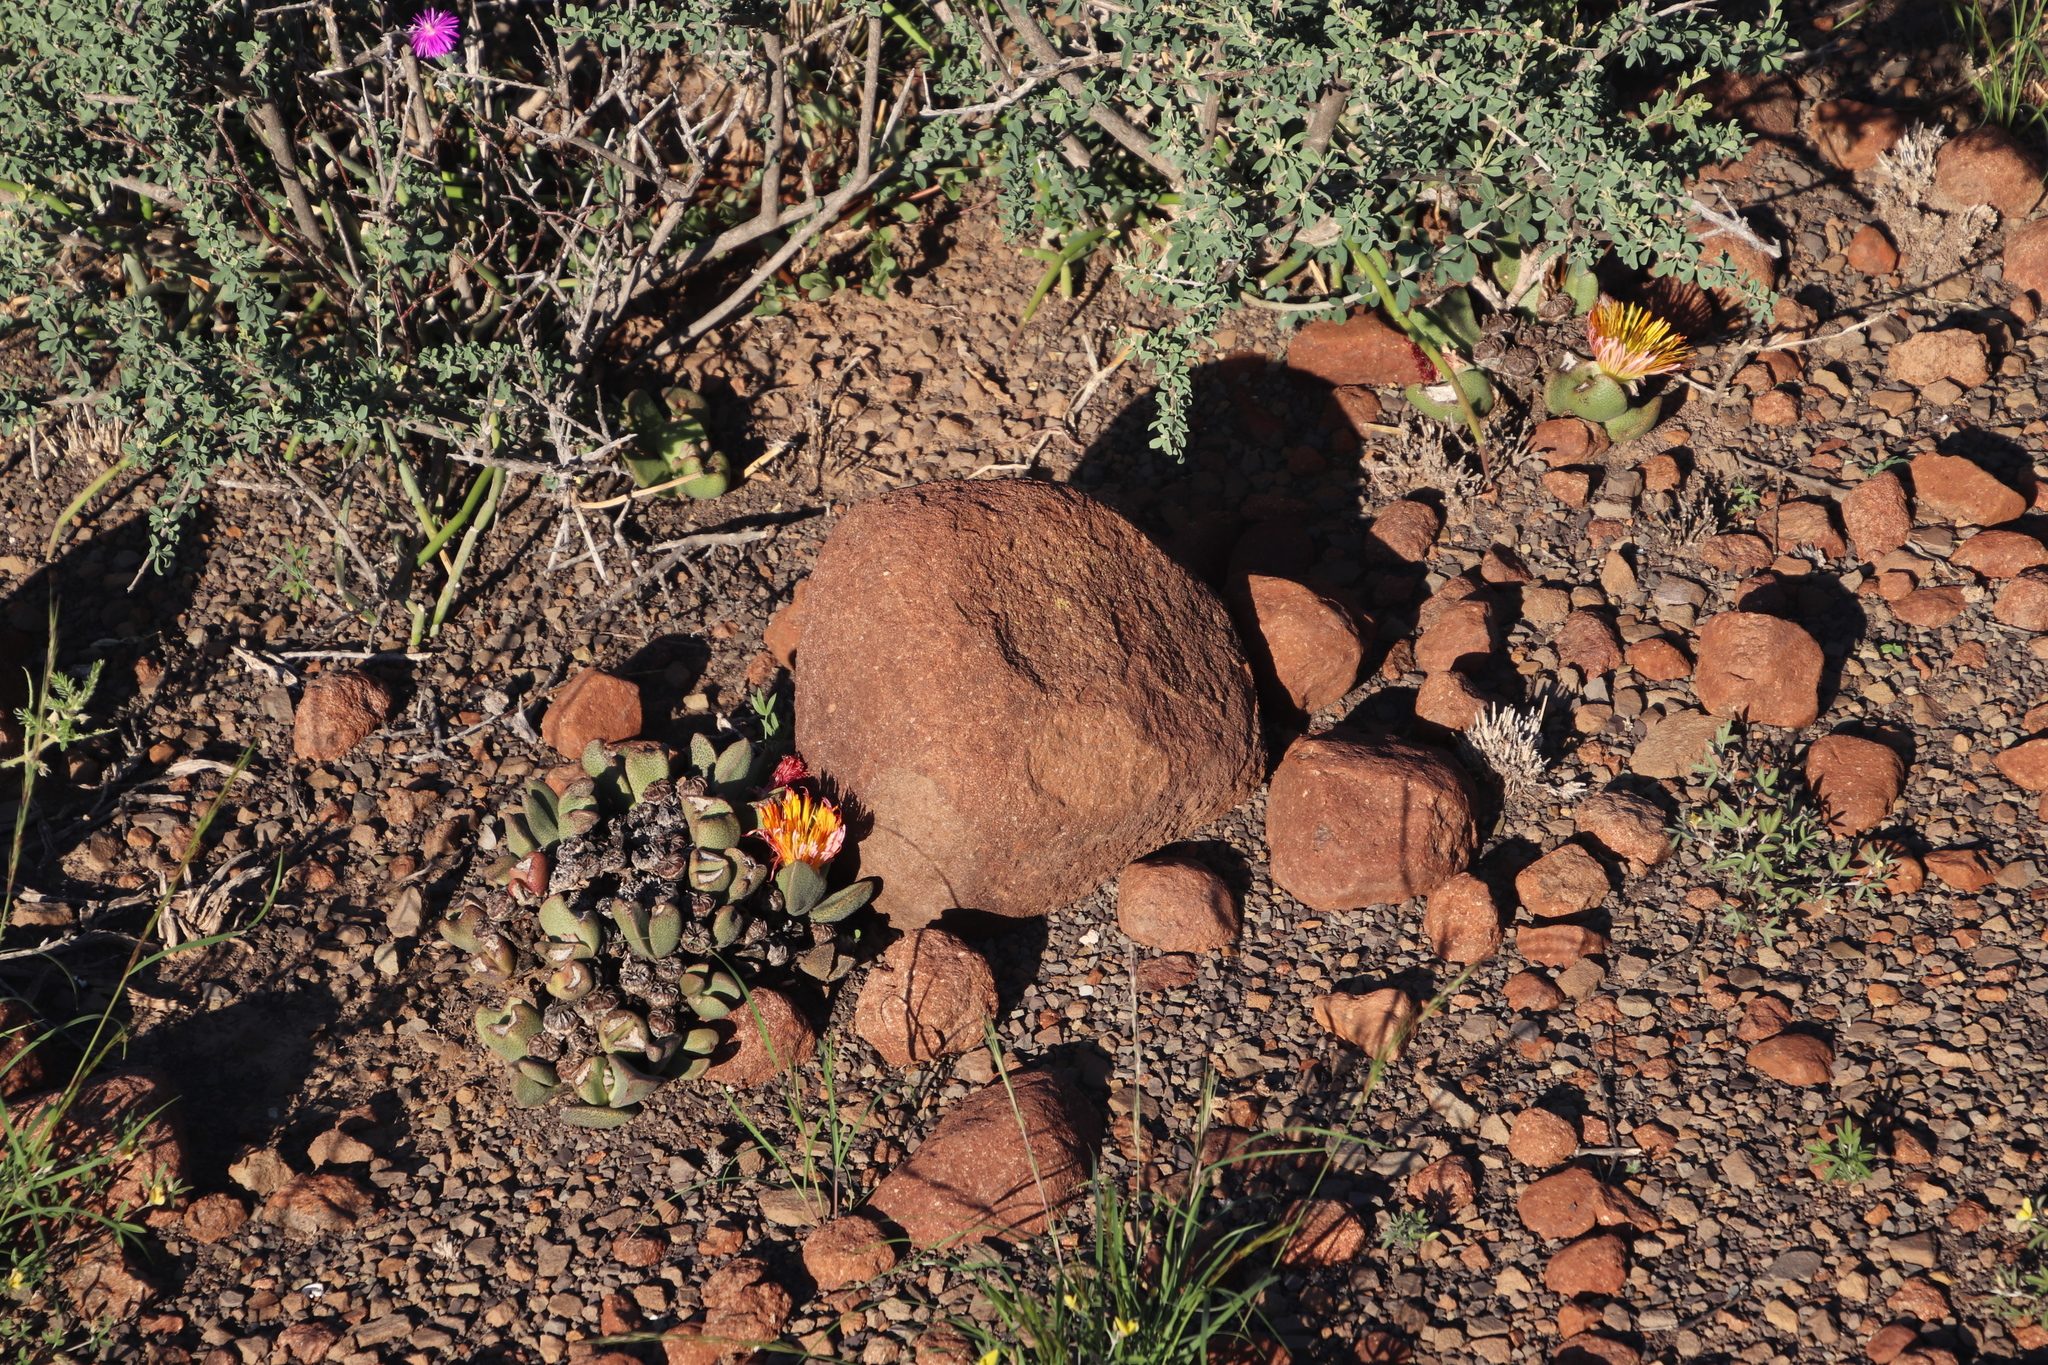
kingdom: Plantae
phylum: Tracheophyta
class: Magnoliopsida
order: Caryophyllales
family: Aizoaceae
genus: Pleiospilos
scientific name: Pleiospilos compactus
